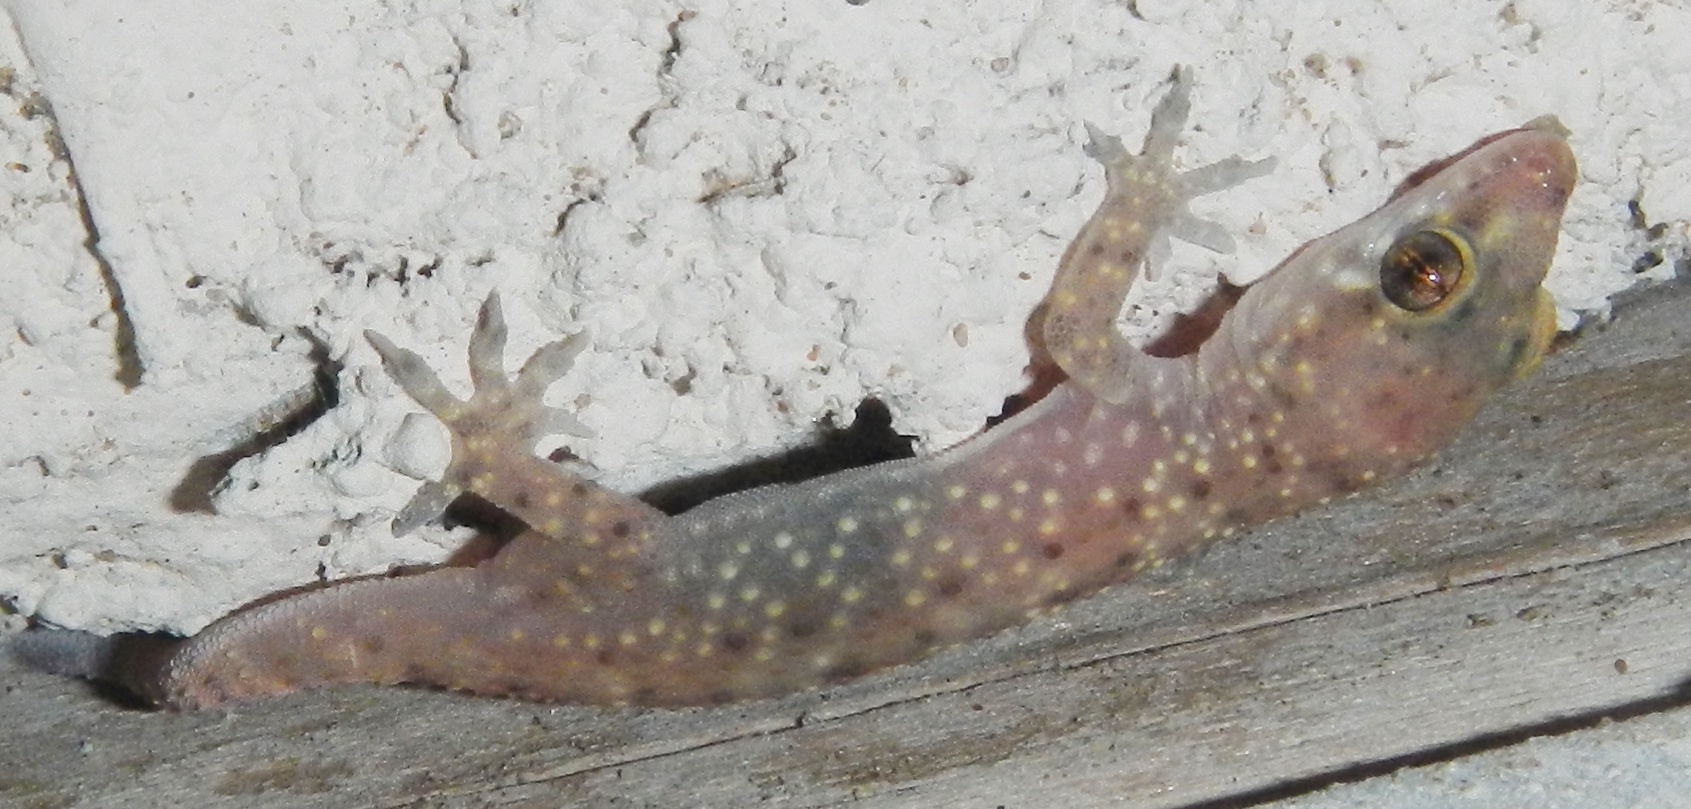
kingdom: Animalia
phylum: Chordata
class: Squamata
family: Gekkonidae
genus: Hemidactylus
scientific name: Hemidactylus turcicus
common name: Turkish gecko
